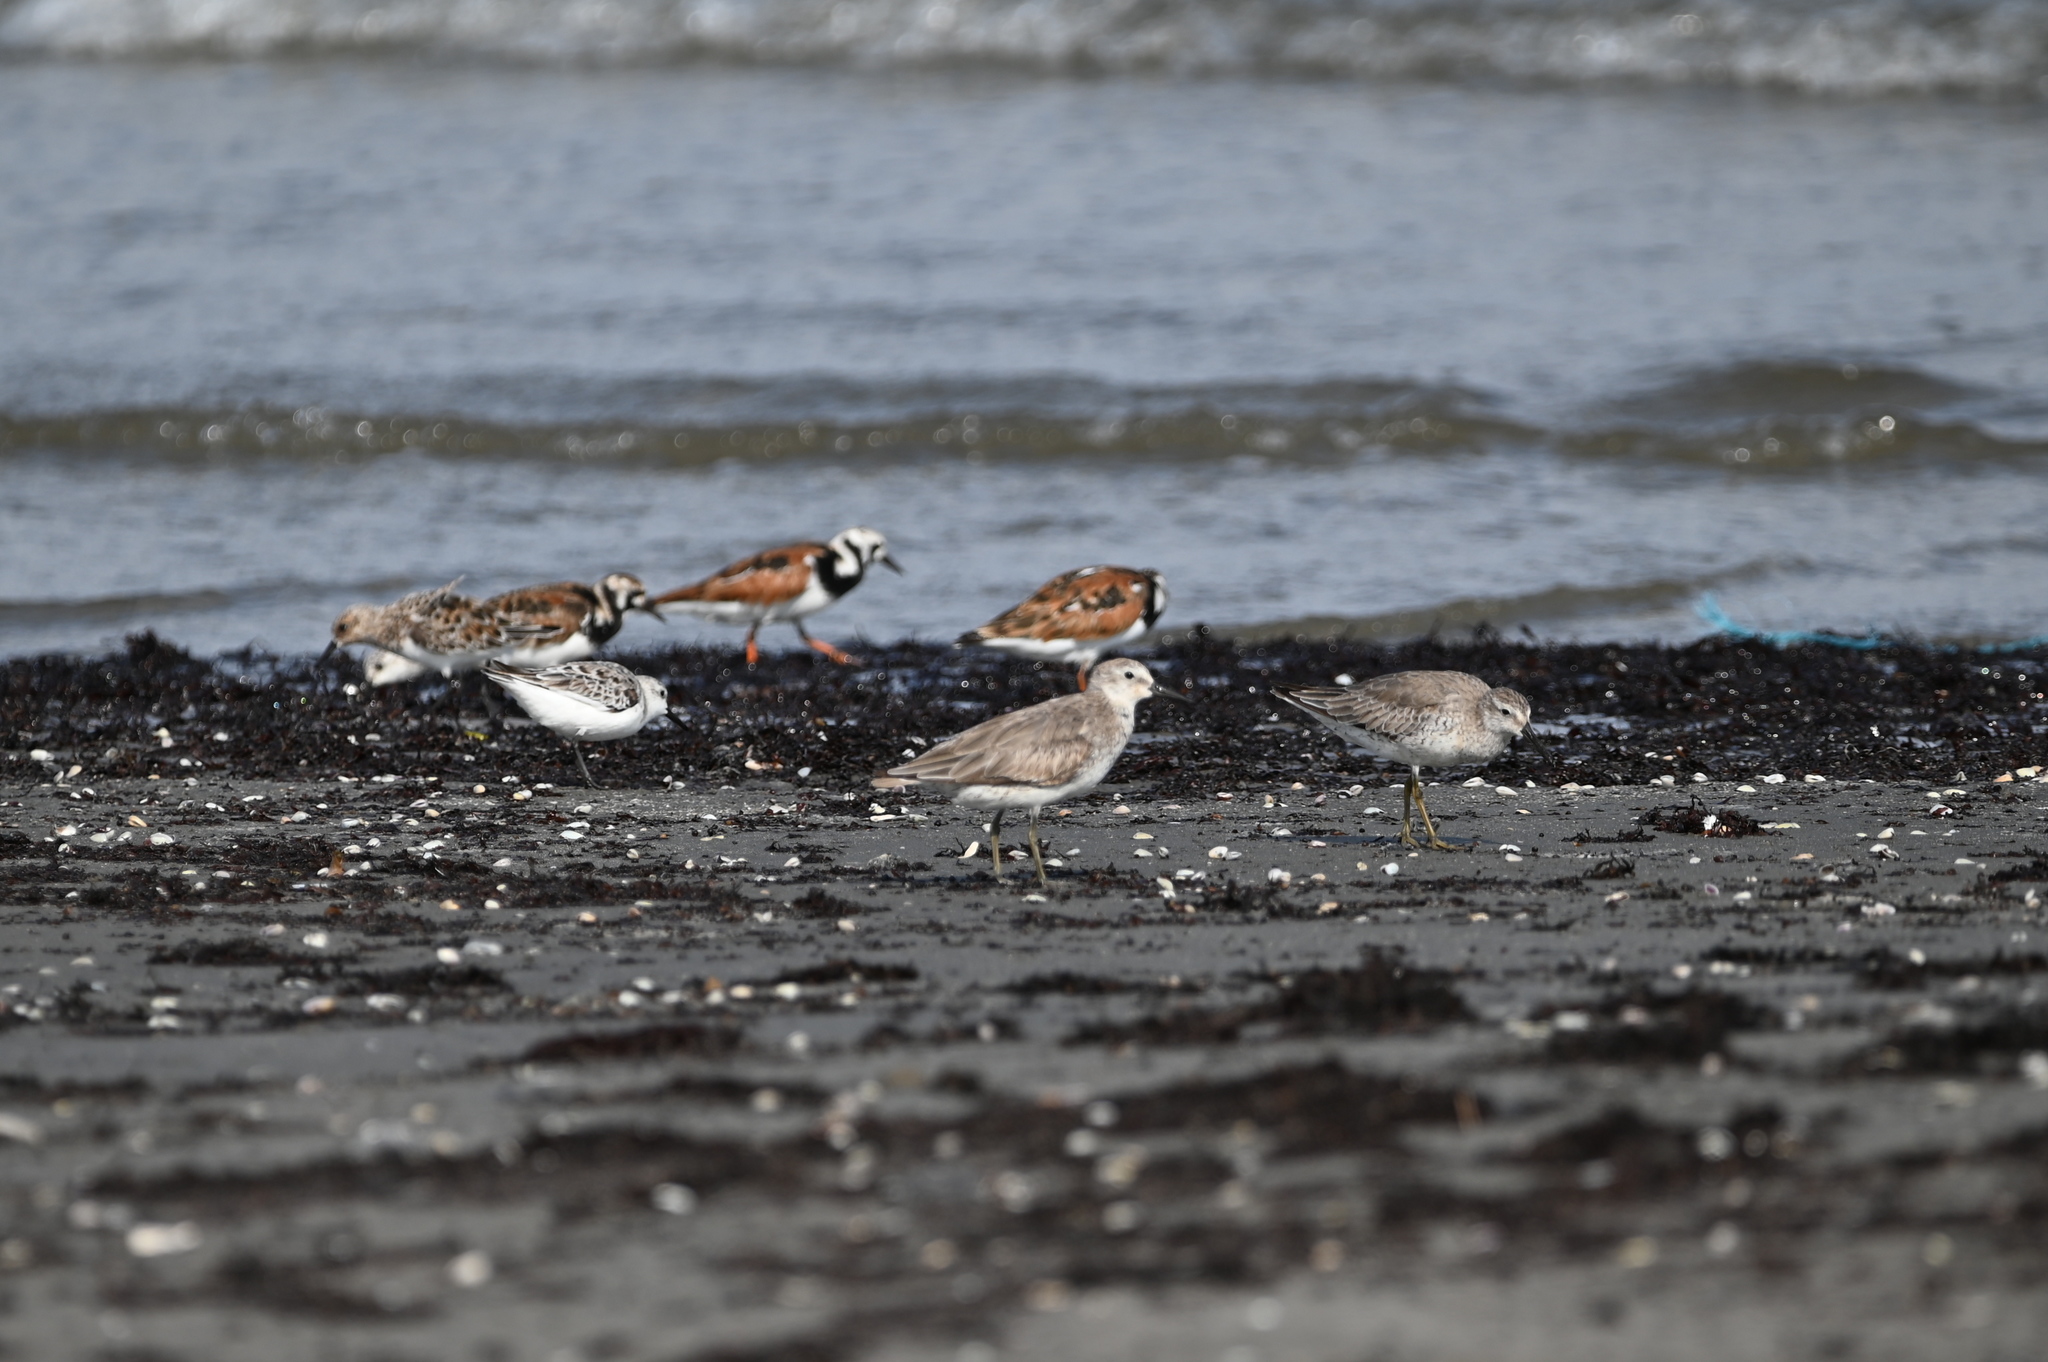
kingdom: Animalia
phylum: Chordata
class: Aves
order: Charadriiformes
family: Scolopacidae
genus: Calidris
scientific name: Calidris canutus
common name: Red knot
